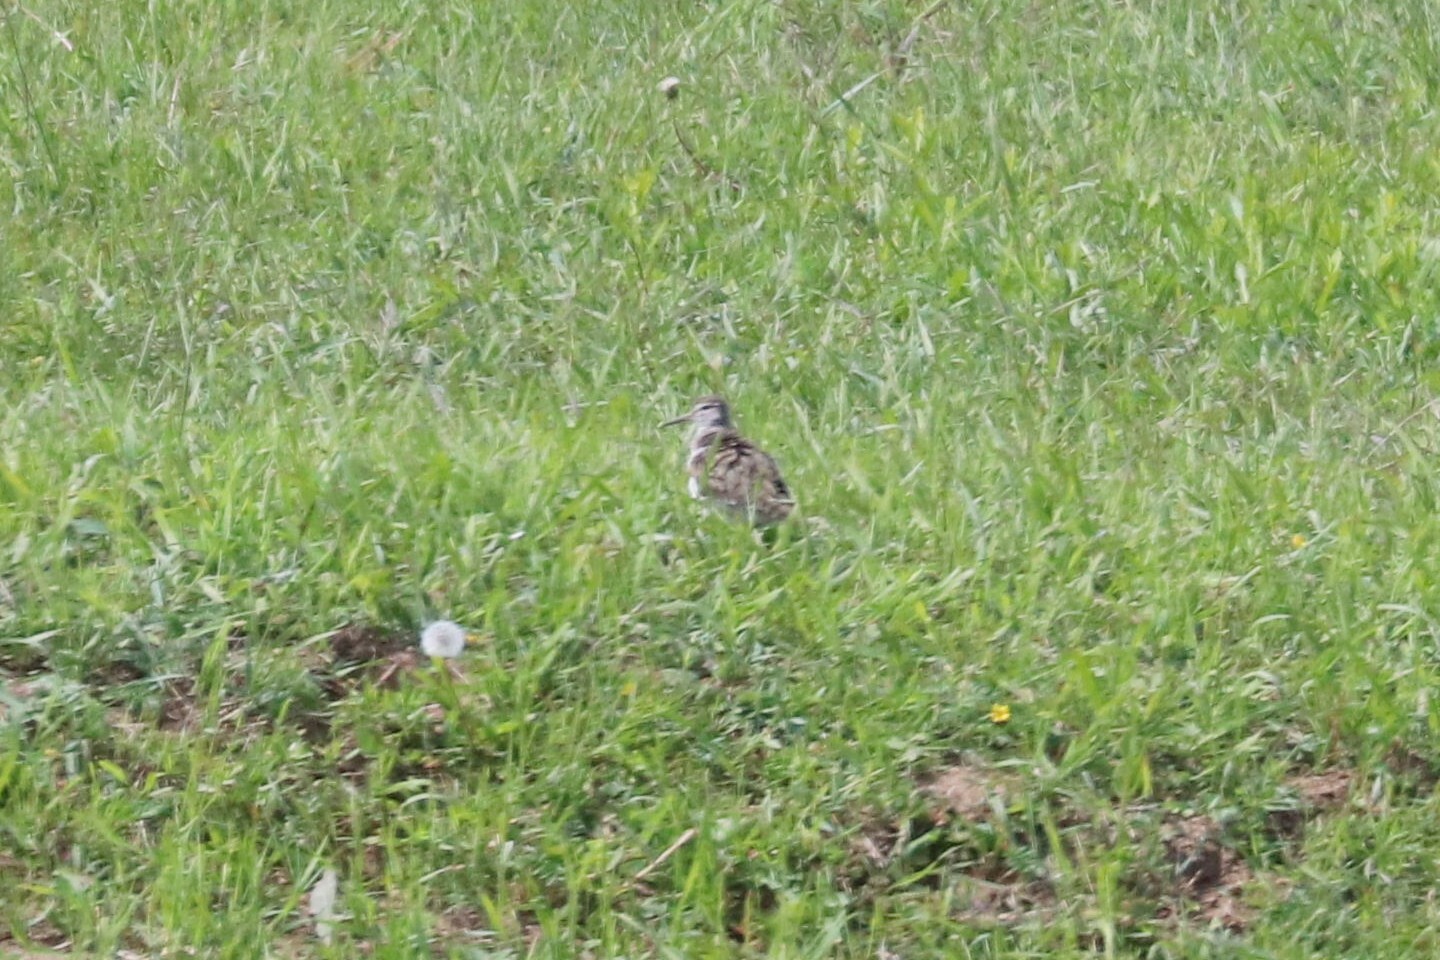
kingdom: Animalia
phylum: Chordata
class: Aves
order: Charadriiformes
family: Scolopacidae
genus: Actitis
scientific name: Actitis hypoleucos
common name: Common sandpiper
